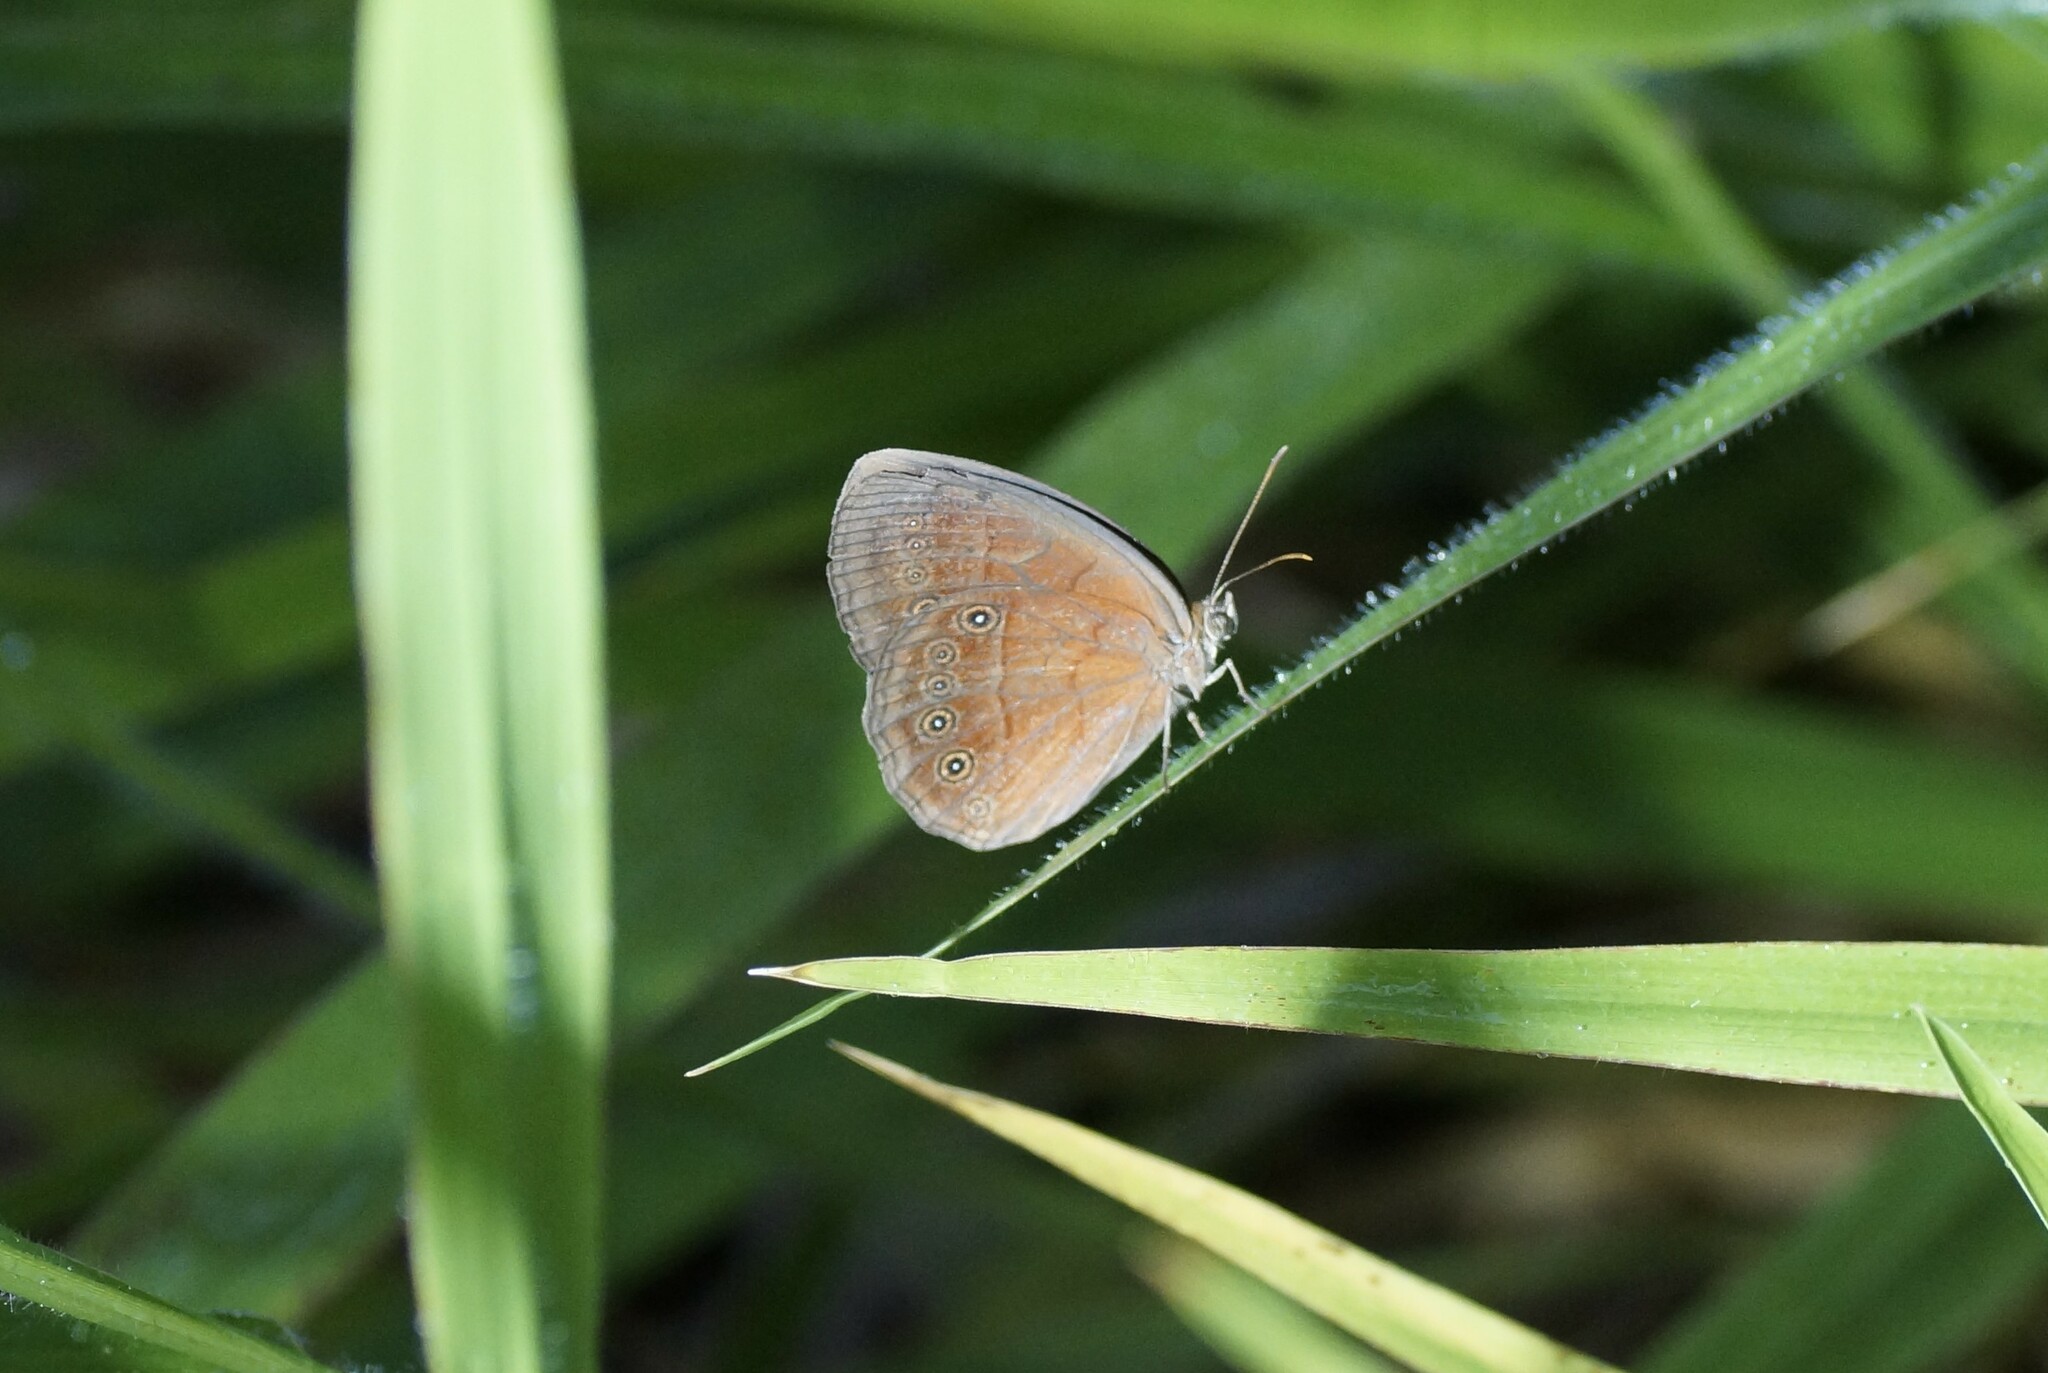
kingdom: Animalia
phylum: Arthropoda
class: Insecta
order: Lepidoptera
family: Nymphalidae
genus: Mycalesis
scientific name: Mycalesis perseus
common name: Dingy bushbrown
